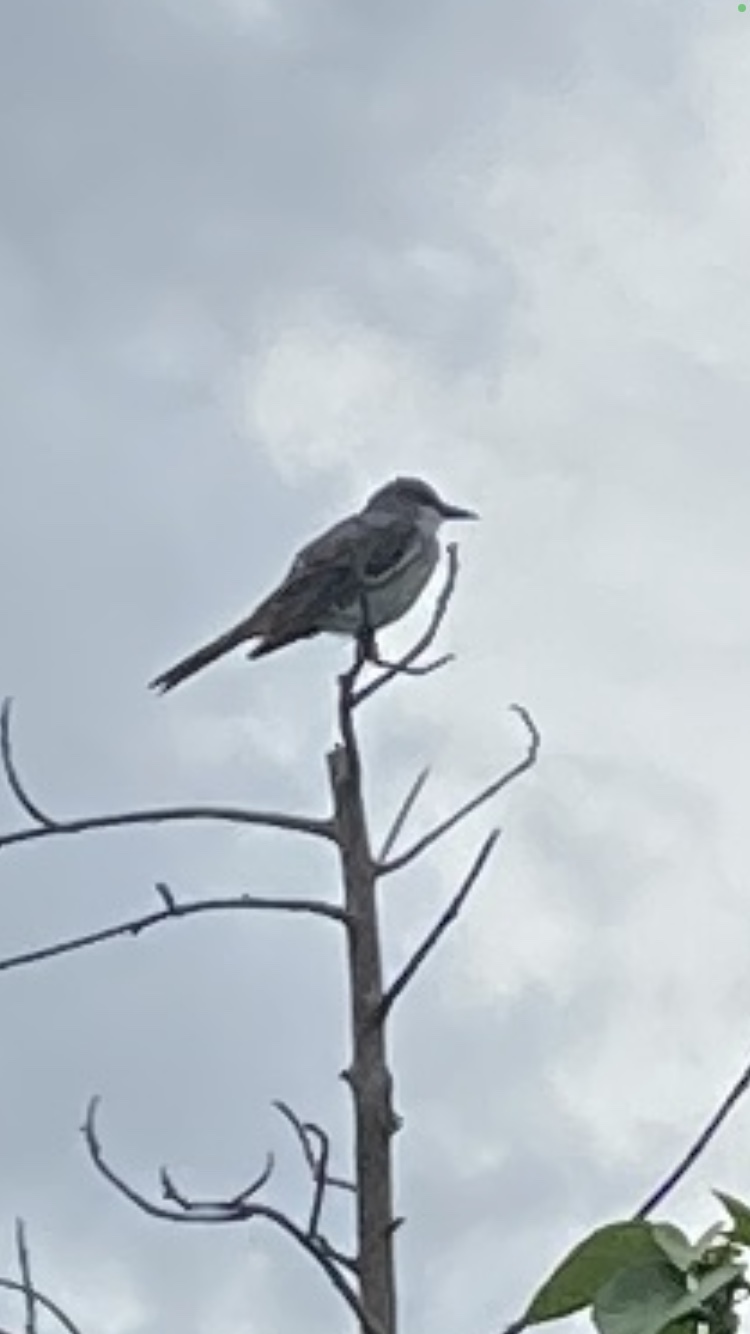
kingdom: Animalia
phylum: Chordata
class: Aves
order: Passeriformes
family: Tyrannidae
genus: Tyrannus
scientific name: Tyrannus dominicensis
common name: Gray kingbird
